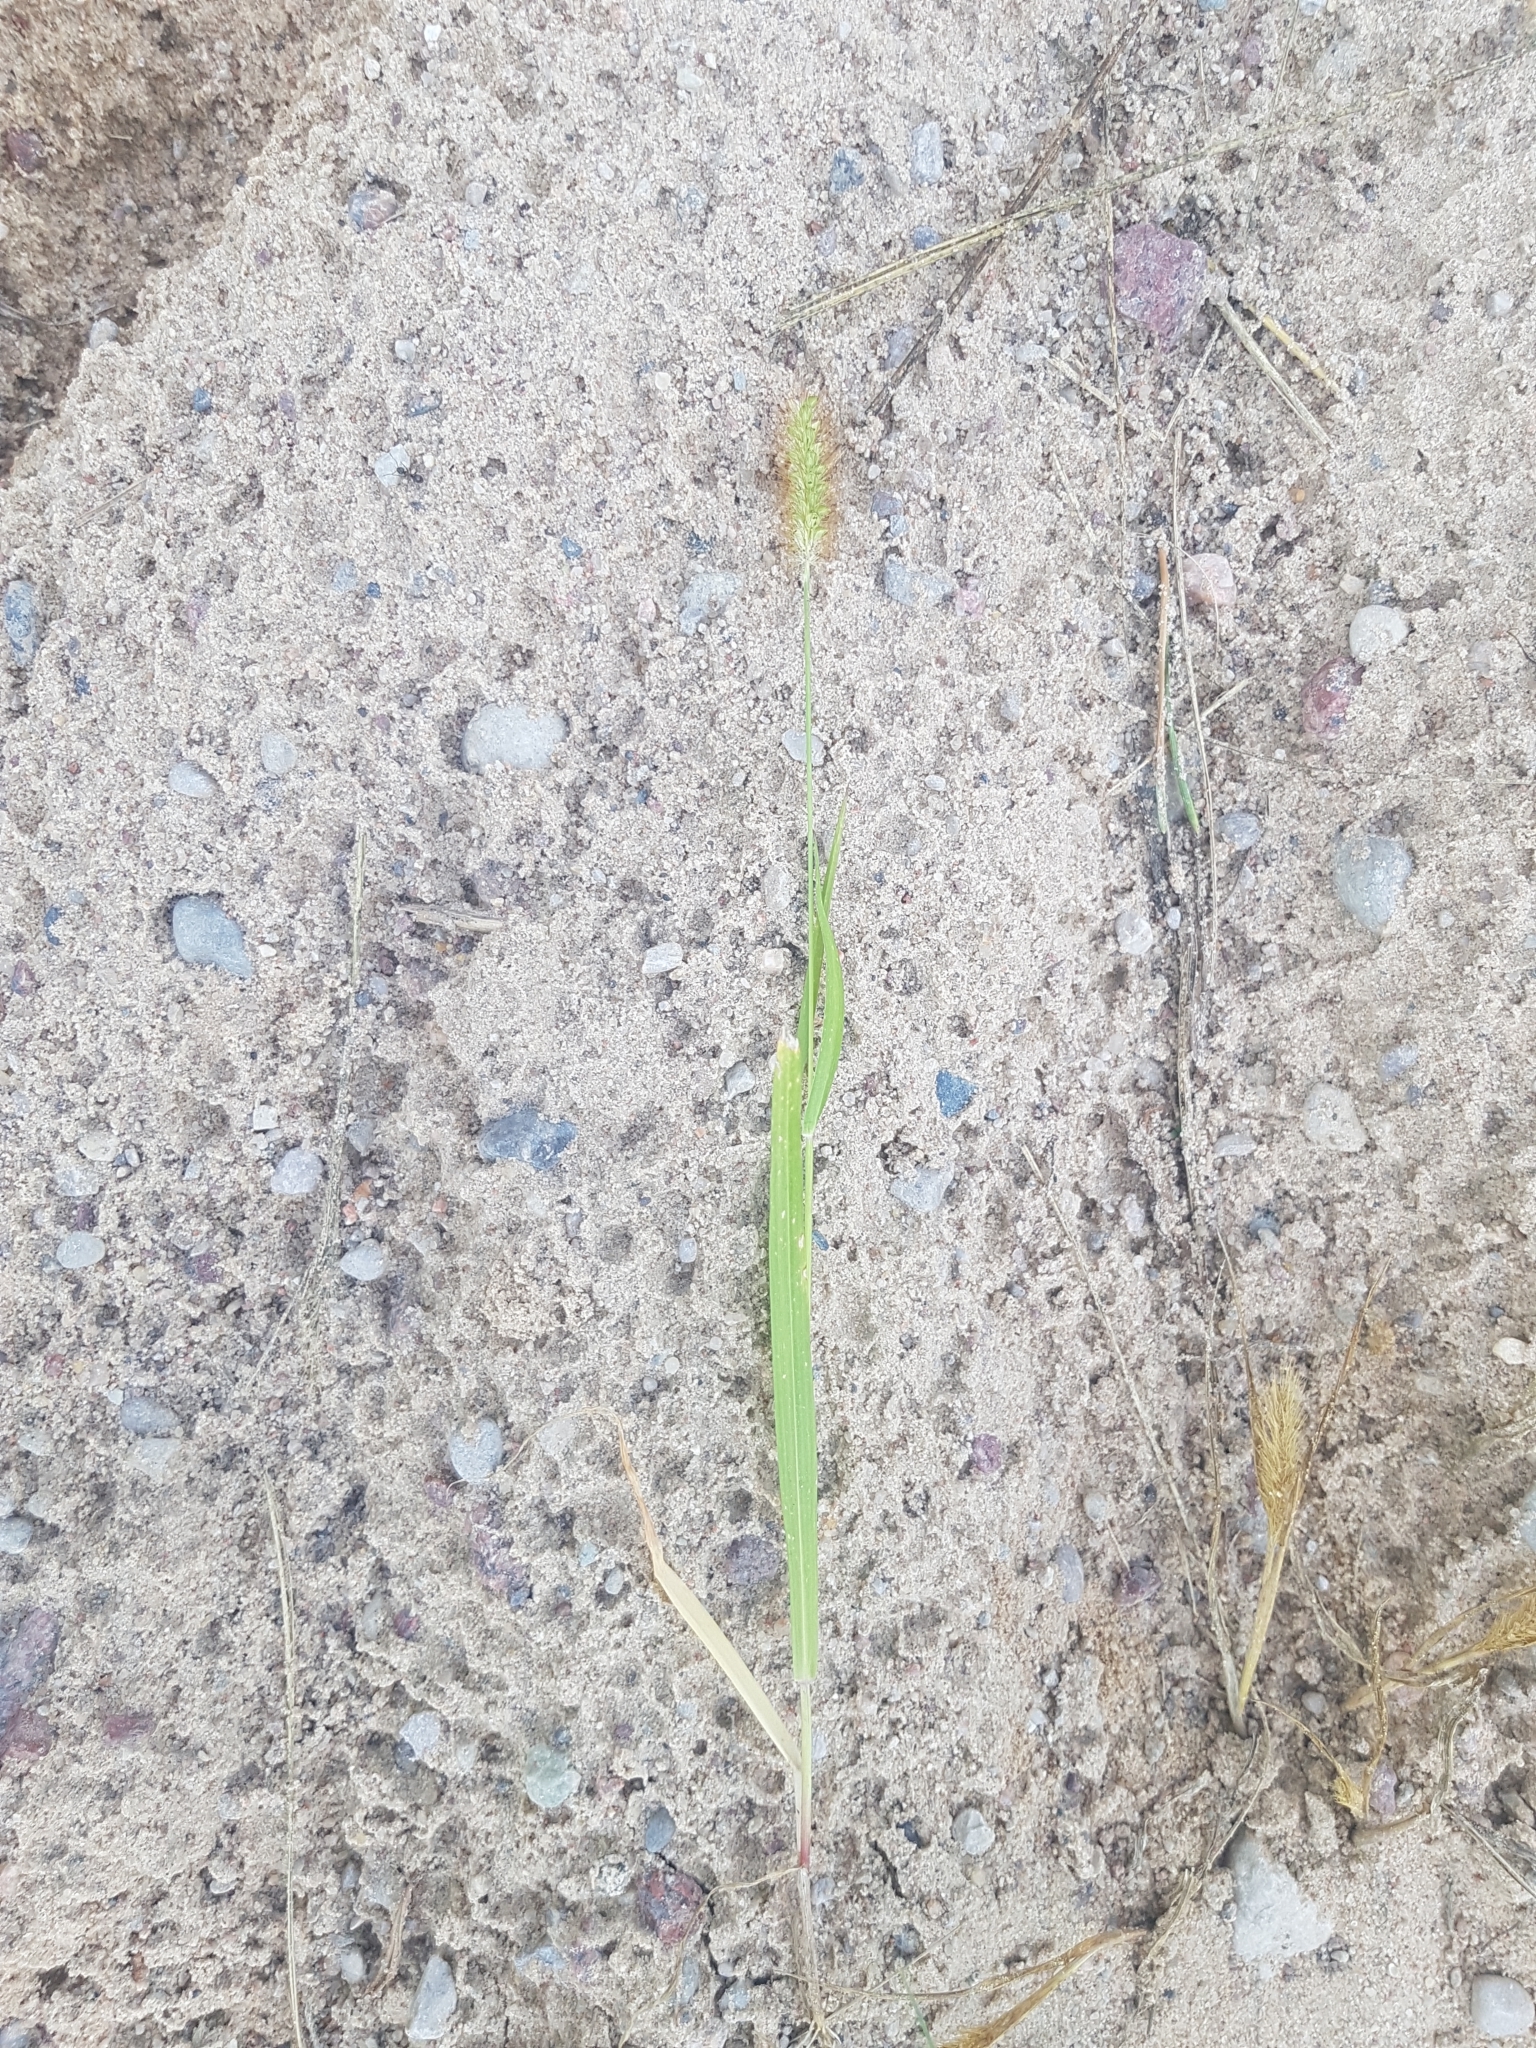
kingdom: Plantae
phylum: Tracheophyta
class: Liliopsida
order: Poales
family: Poaceae
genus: Setaria
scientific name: Setaria pumila
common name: Yellow bristle-grass
